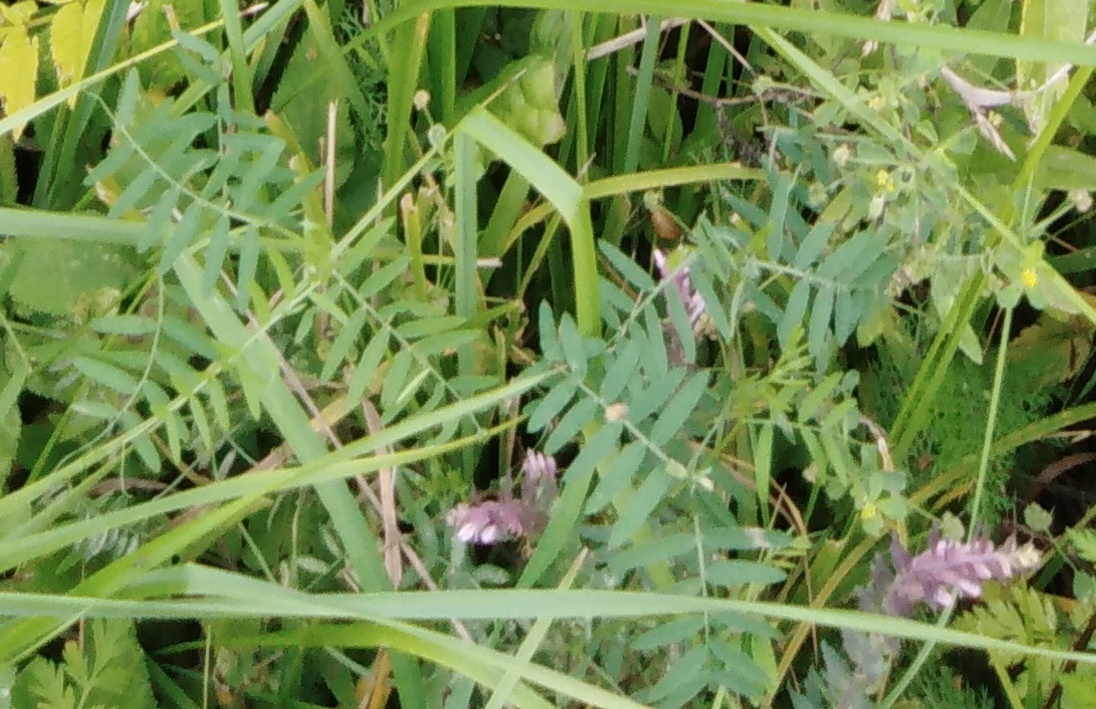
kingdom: Plantae
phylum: Tracheophyta
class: Magnoliopsida
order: Fabales
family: Fabaceae
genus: Vicia
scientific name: Vicia cracca
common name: Bird vetch
